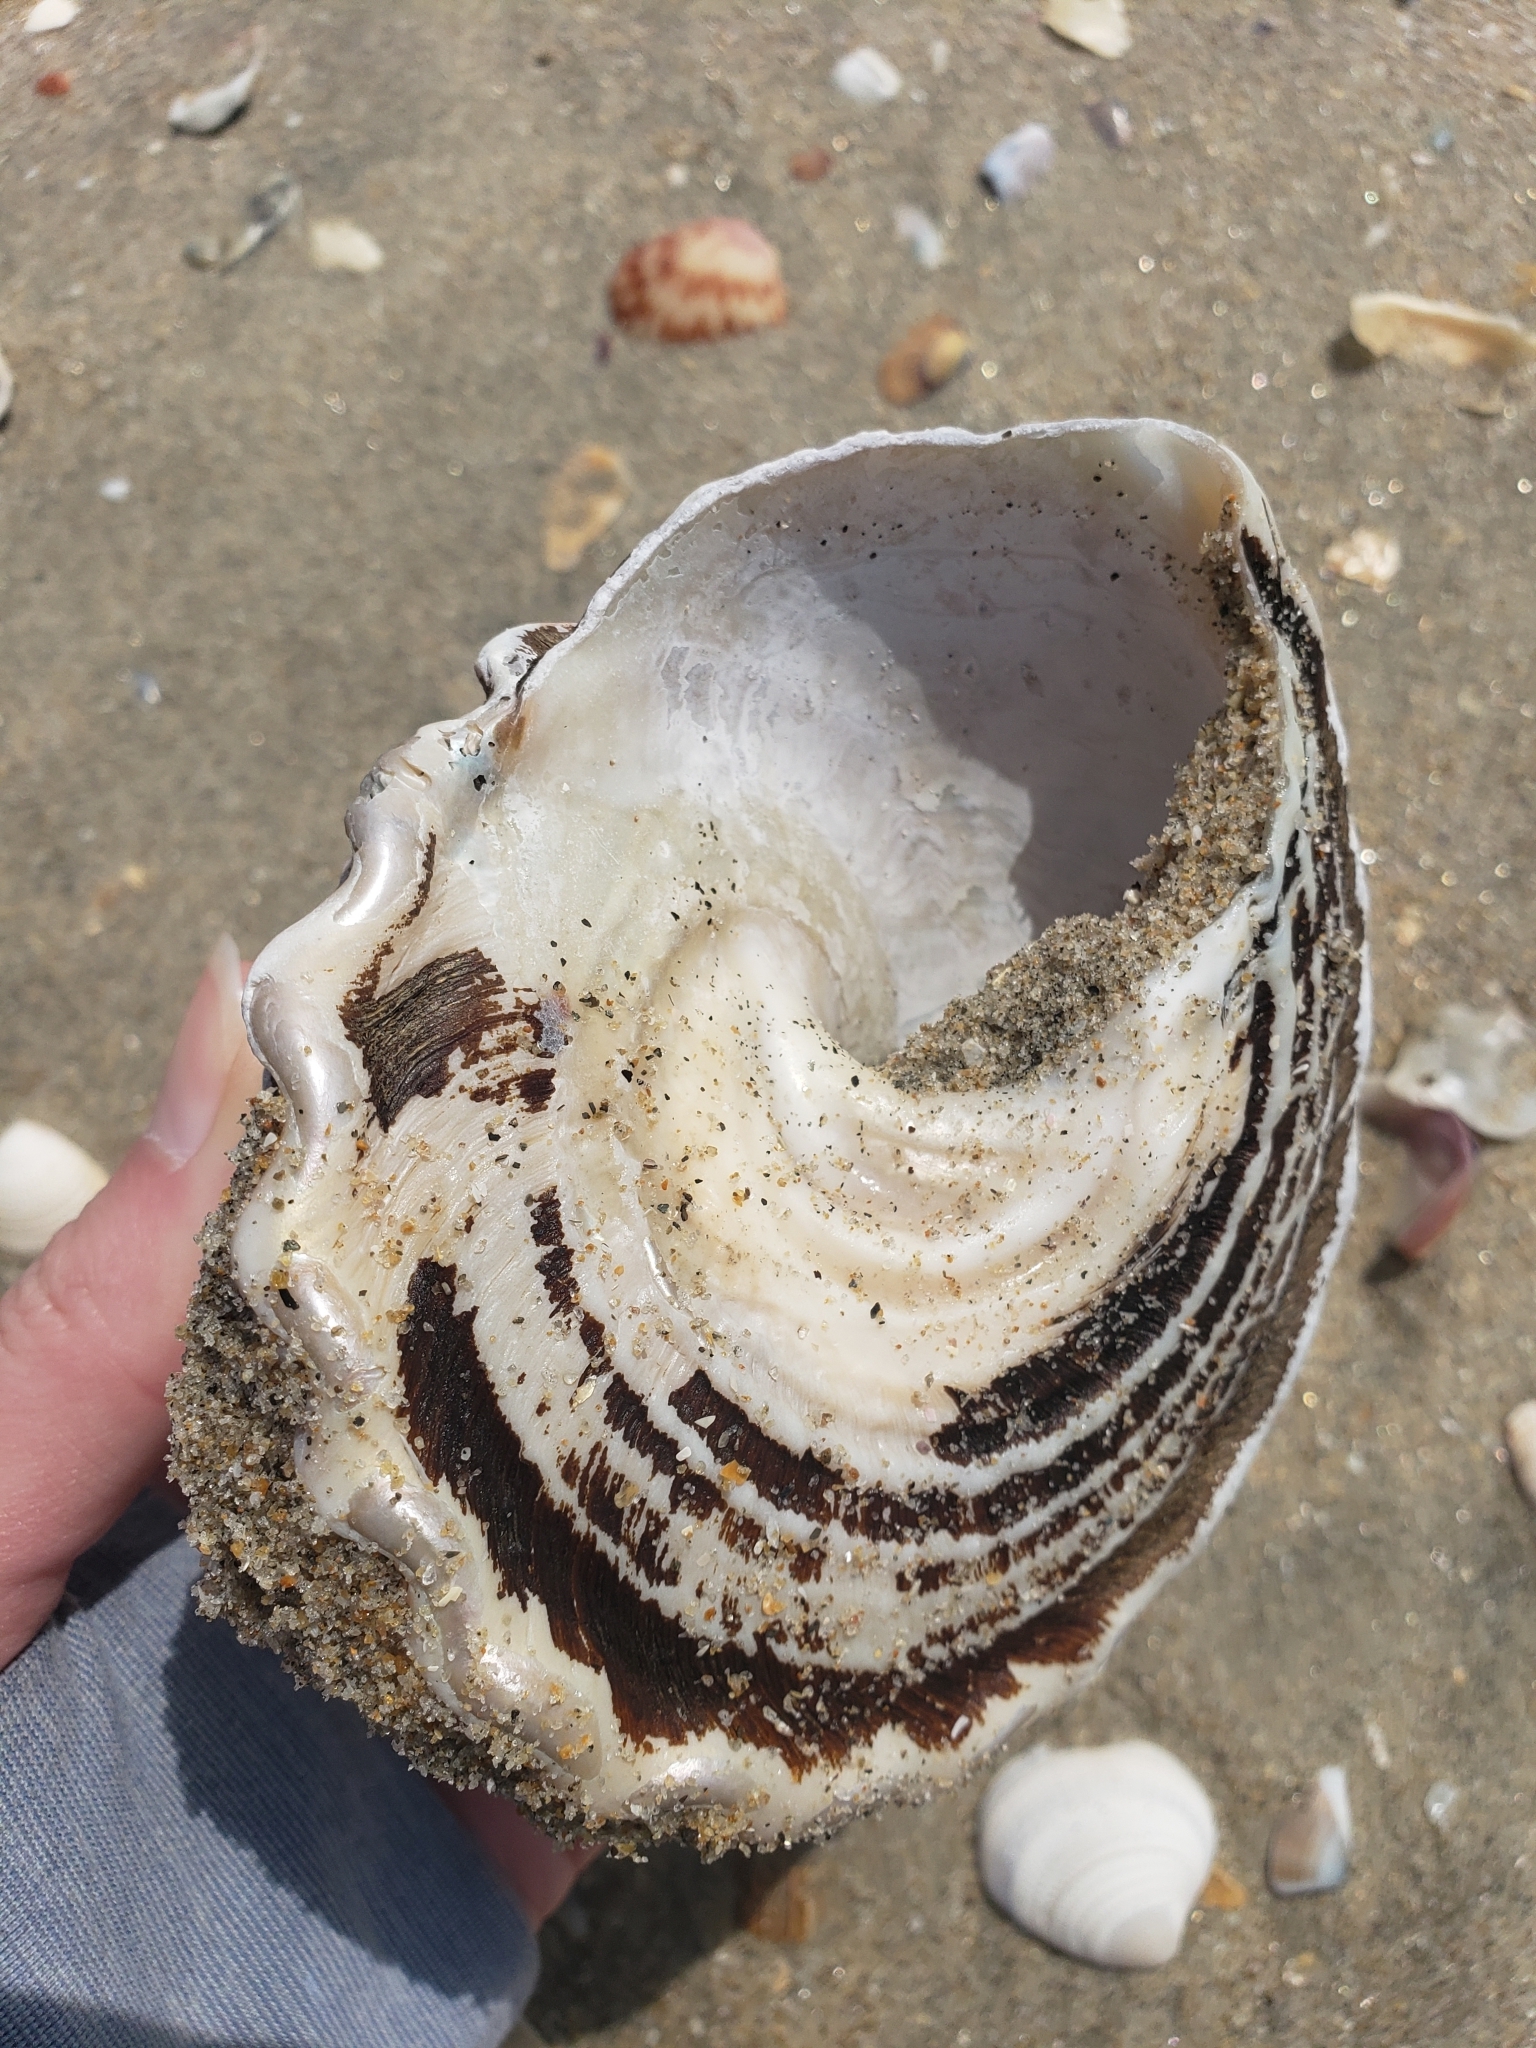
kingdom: Animalia
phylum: Mollusca
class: Gastropoda
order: Trochida
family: Turbinidae
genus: Megastraea
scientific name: Megastraea undosa
